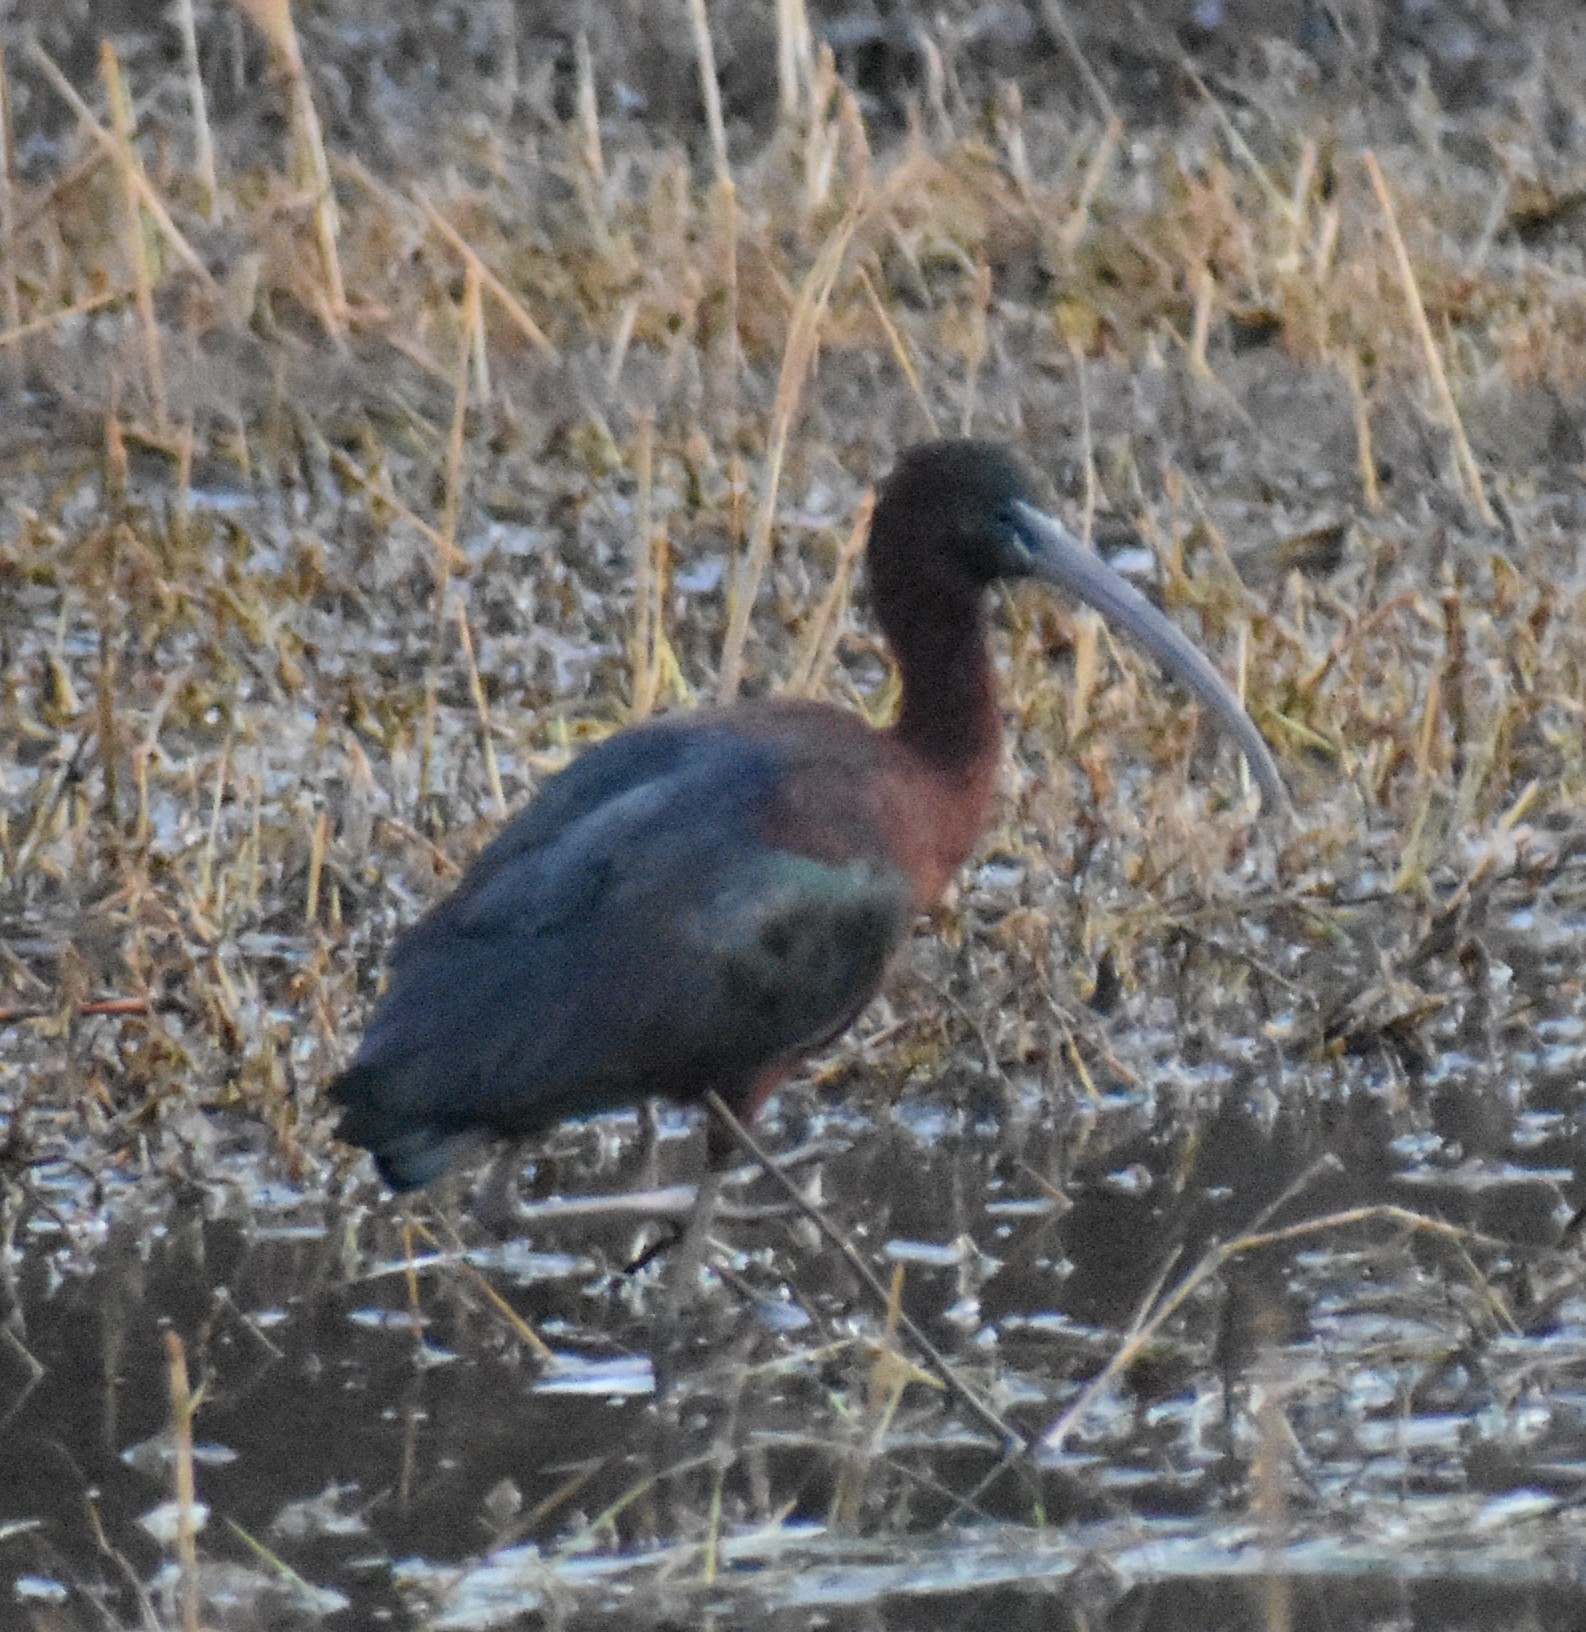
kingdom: Animalia
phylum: Chordata
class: Aves
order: Pelecaniformes
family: Threskiornithidae
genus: Plegadis
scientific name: Plegadis falcinellus
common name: Glossy ibis
